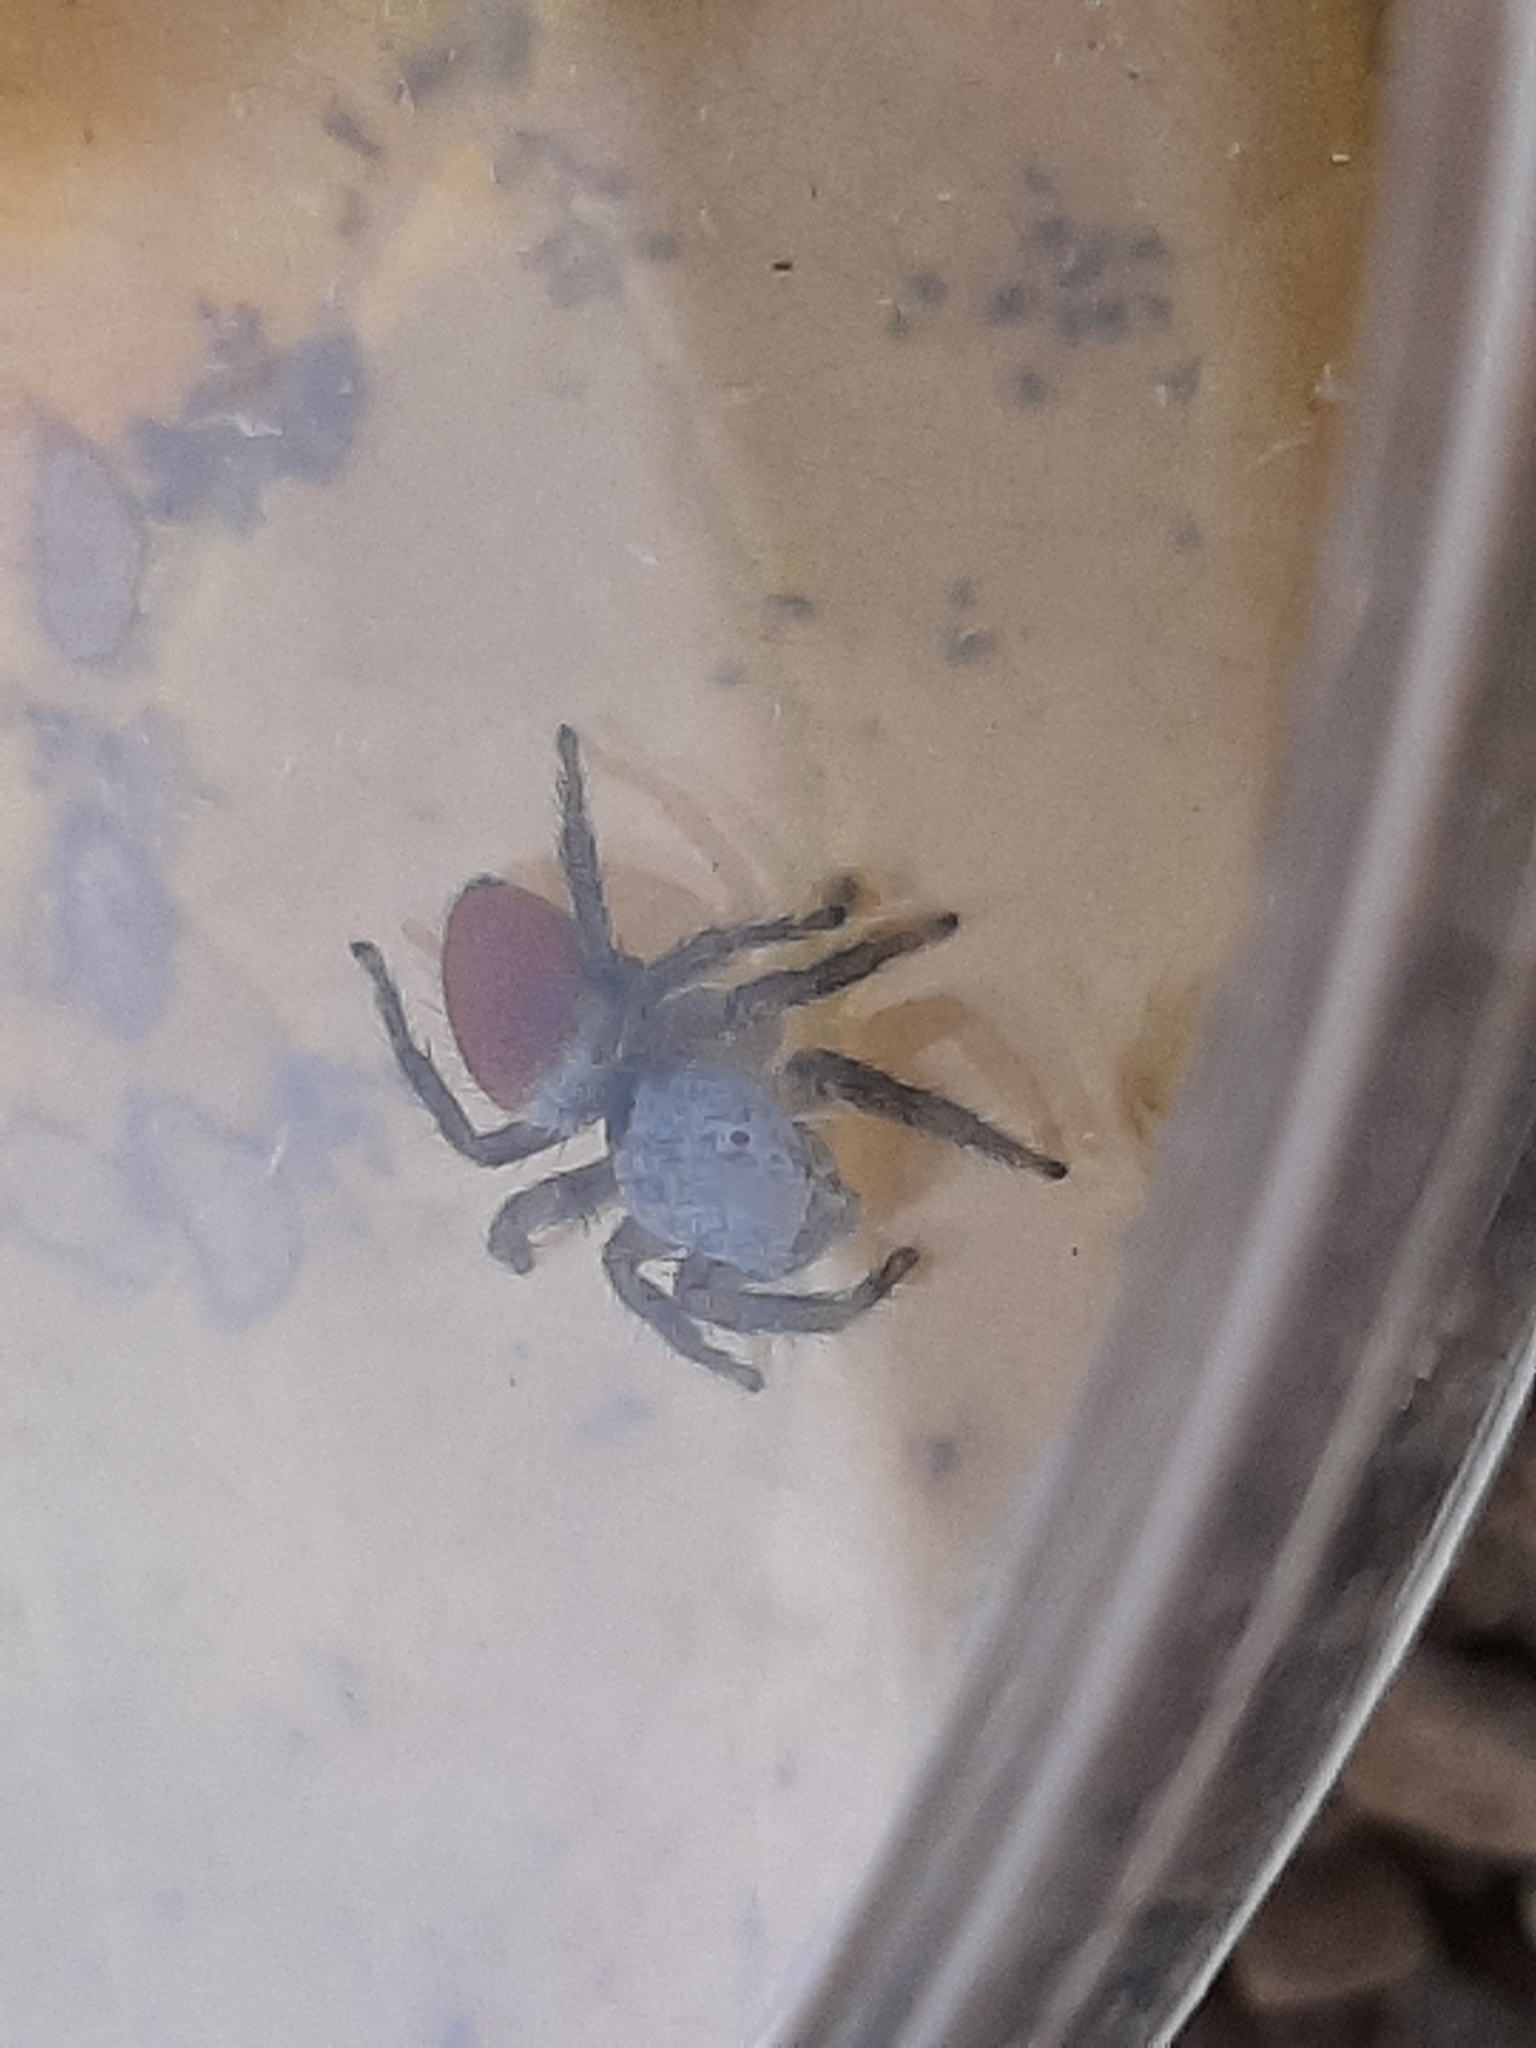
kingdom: Animalia
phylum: Arthropoda
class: Arachnida
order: Araneae
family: Salticidae
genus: Habronattus
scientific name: Habronattus decorus
